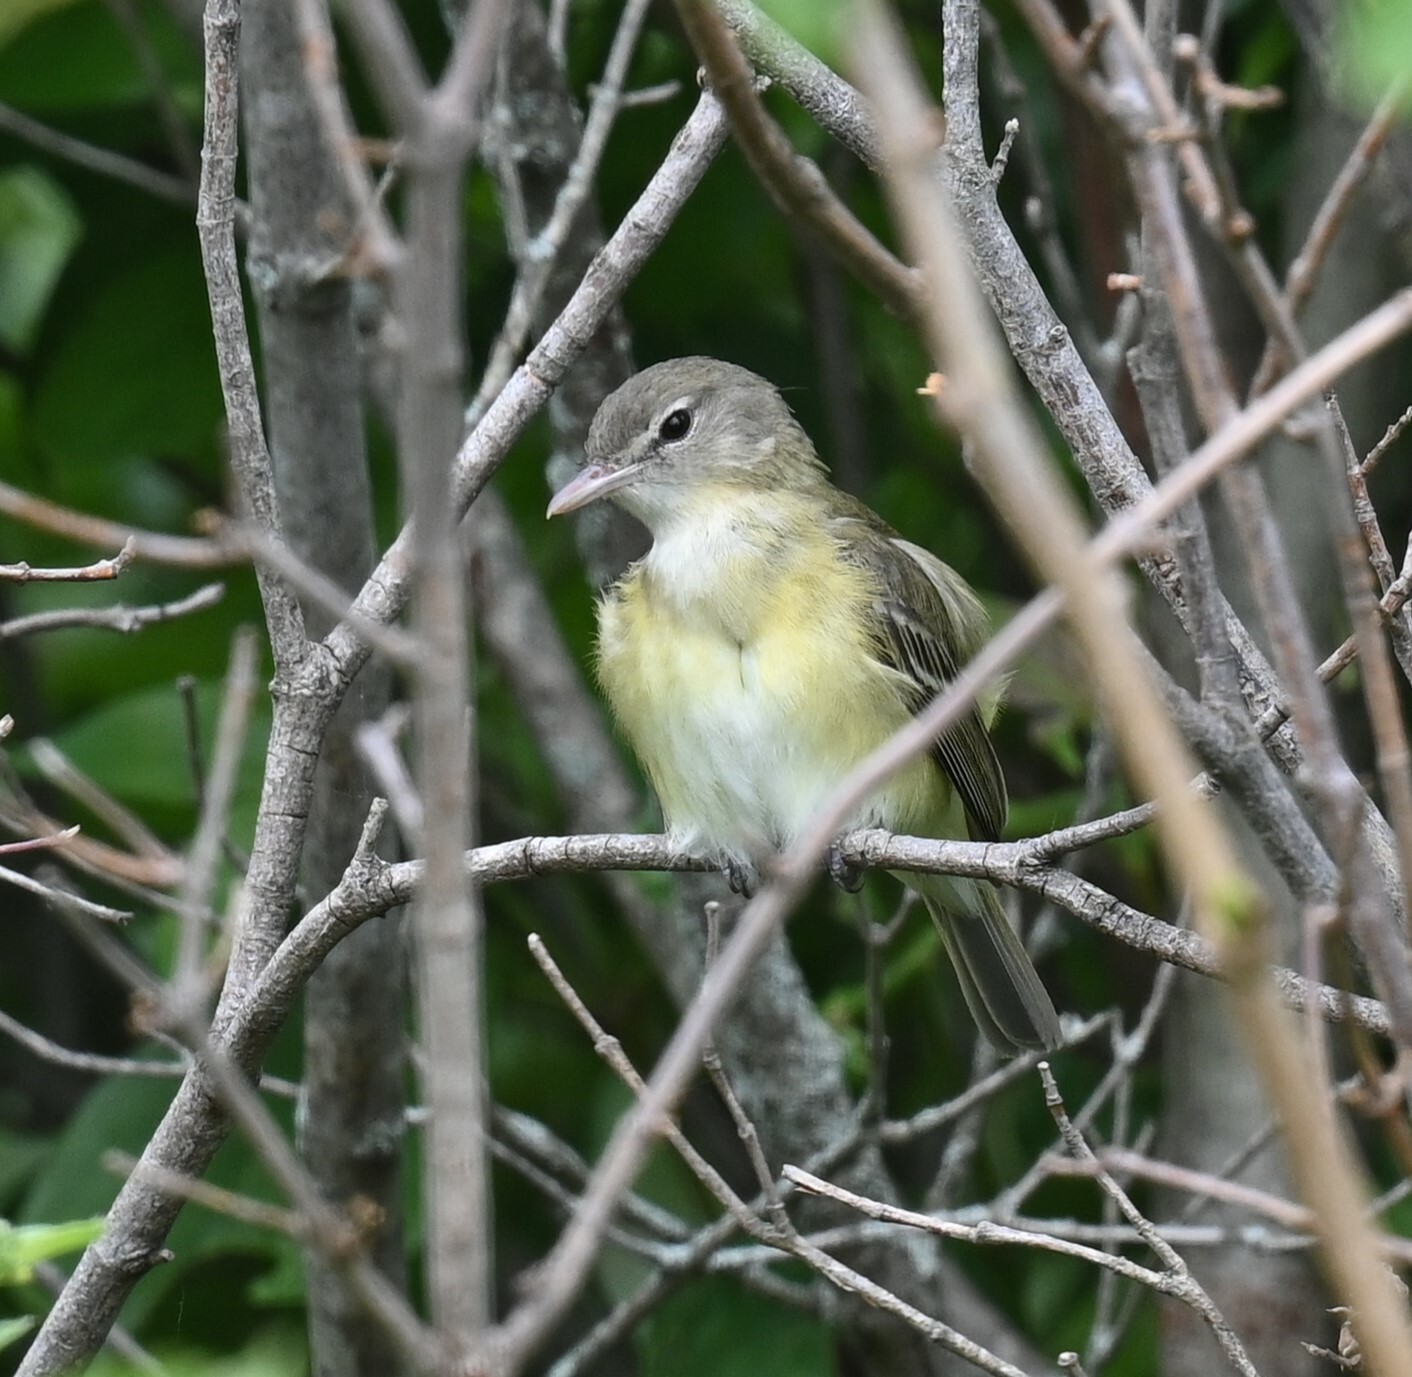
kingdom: Animalia
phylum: Chordata
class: Aves
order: Passeriformes
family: Vireonidae
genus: Vireo
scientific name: Vireo bellii
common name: Bell's vireo
